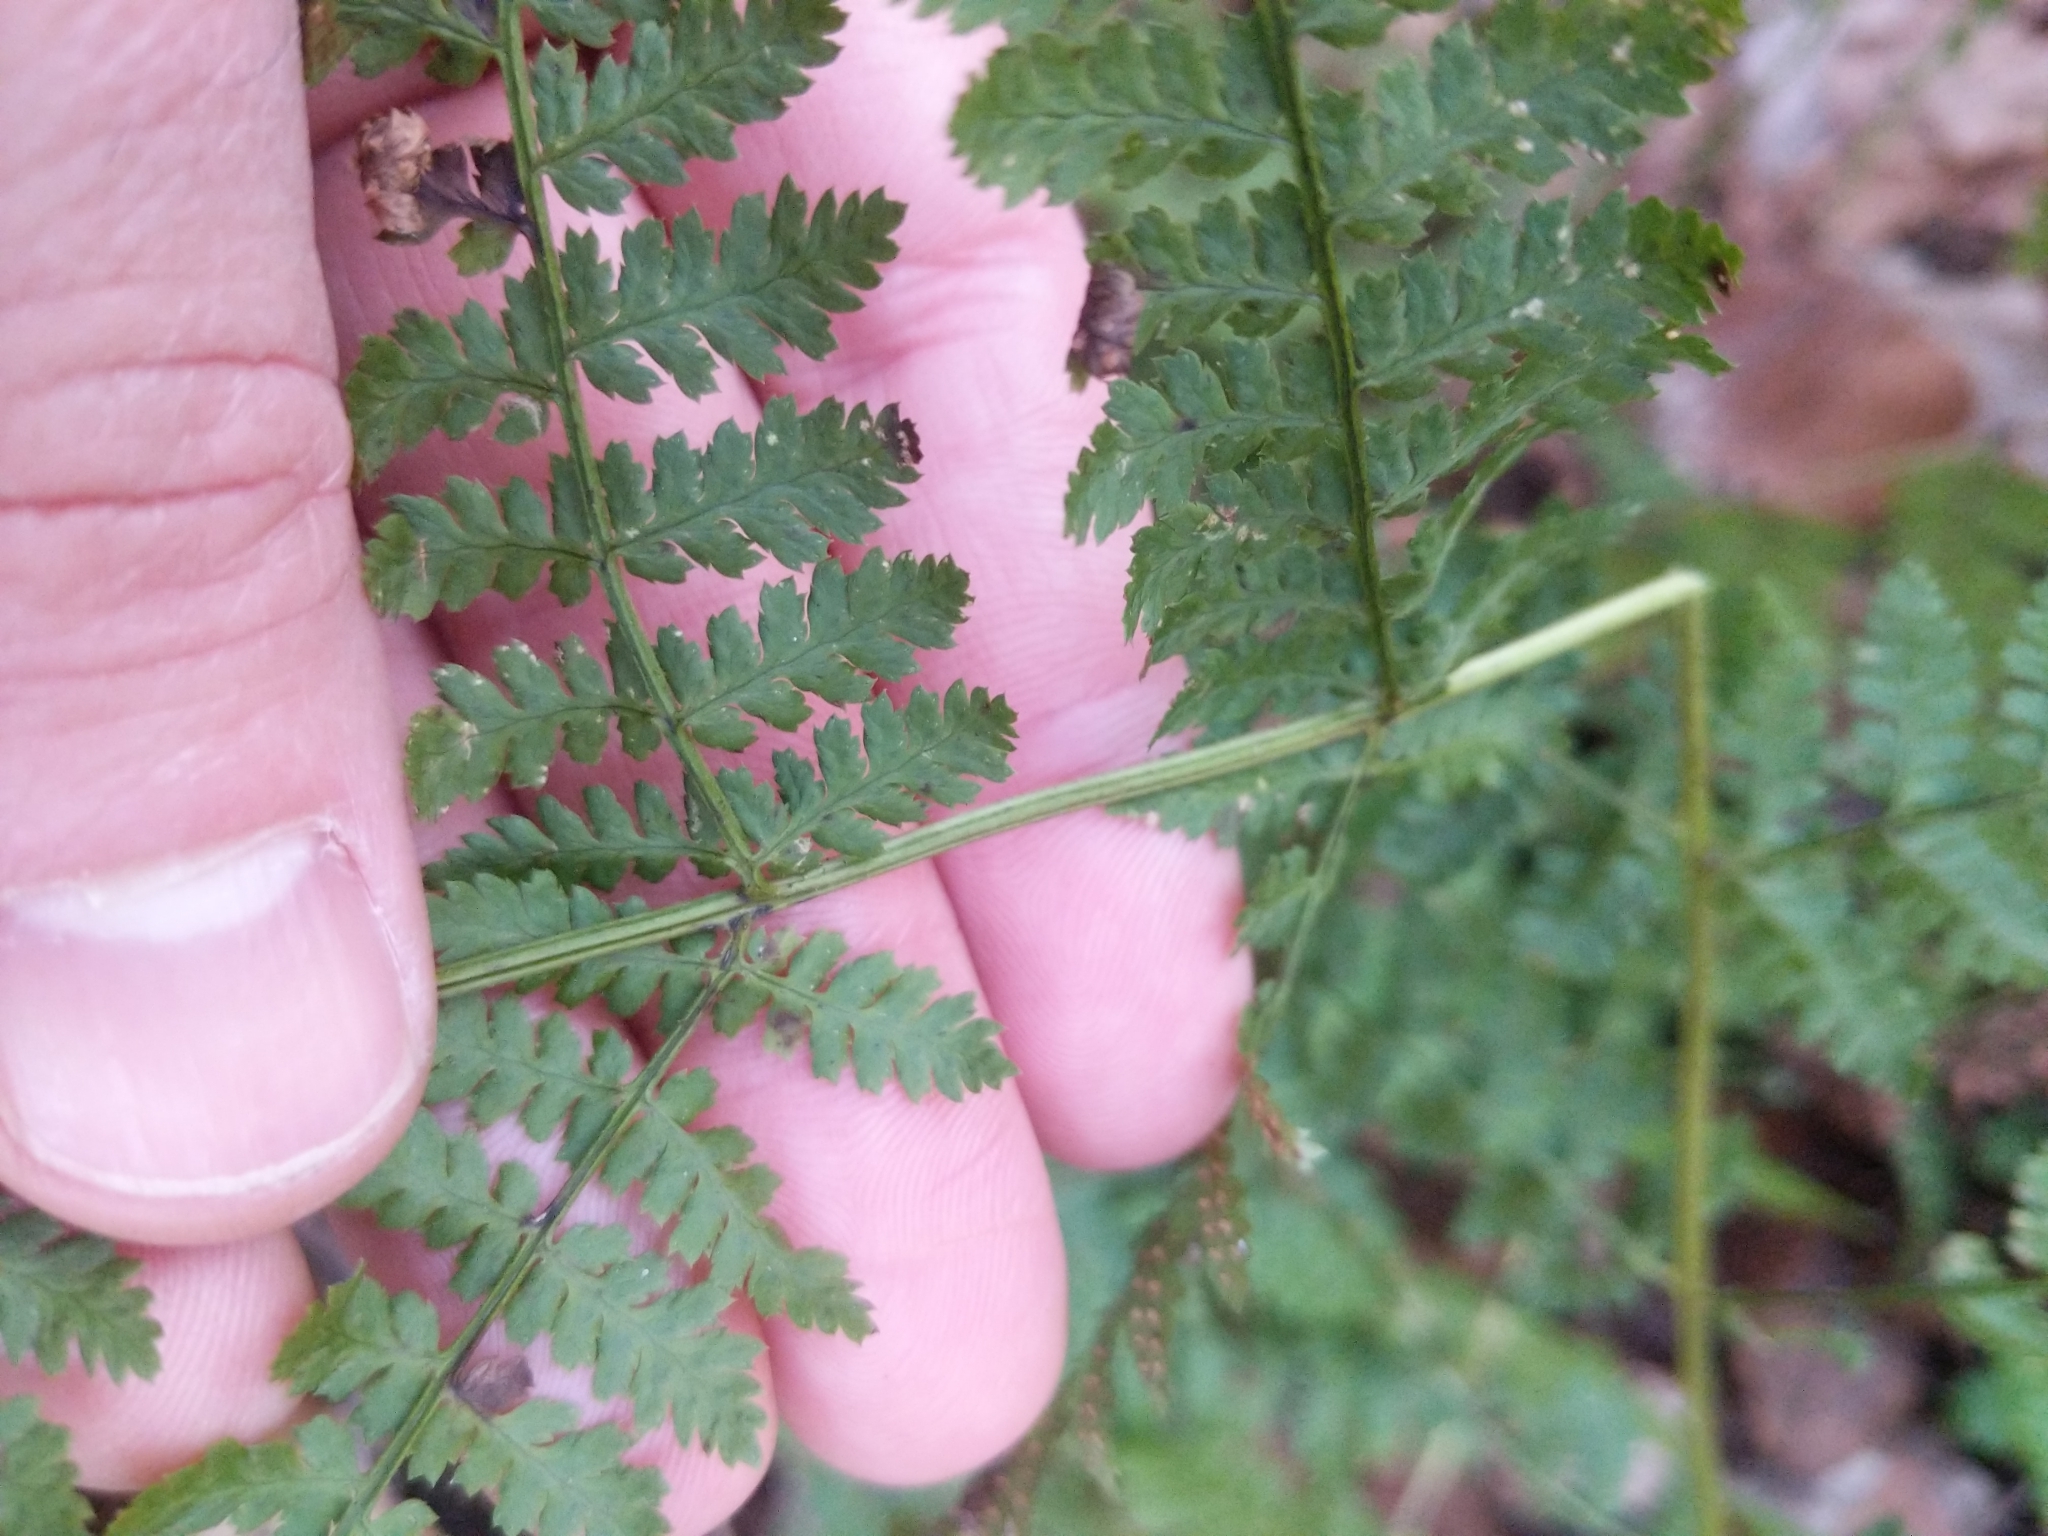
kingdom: Plantae
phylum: Tracheophyta
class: Polypodiopsida
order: Polypodiales
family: Dryopteridaceae
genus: Dryopteris
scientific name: Dryopteris intermedia
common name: Evergreen wood fern
